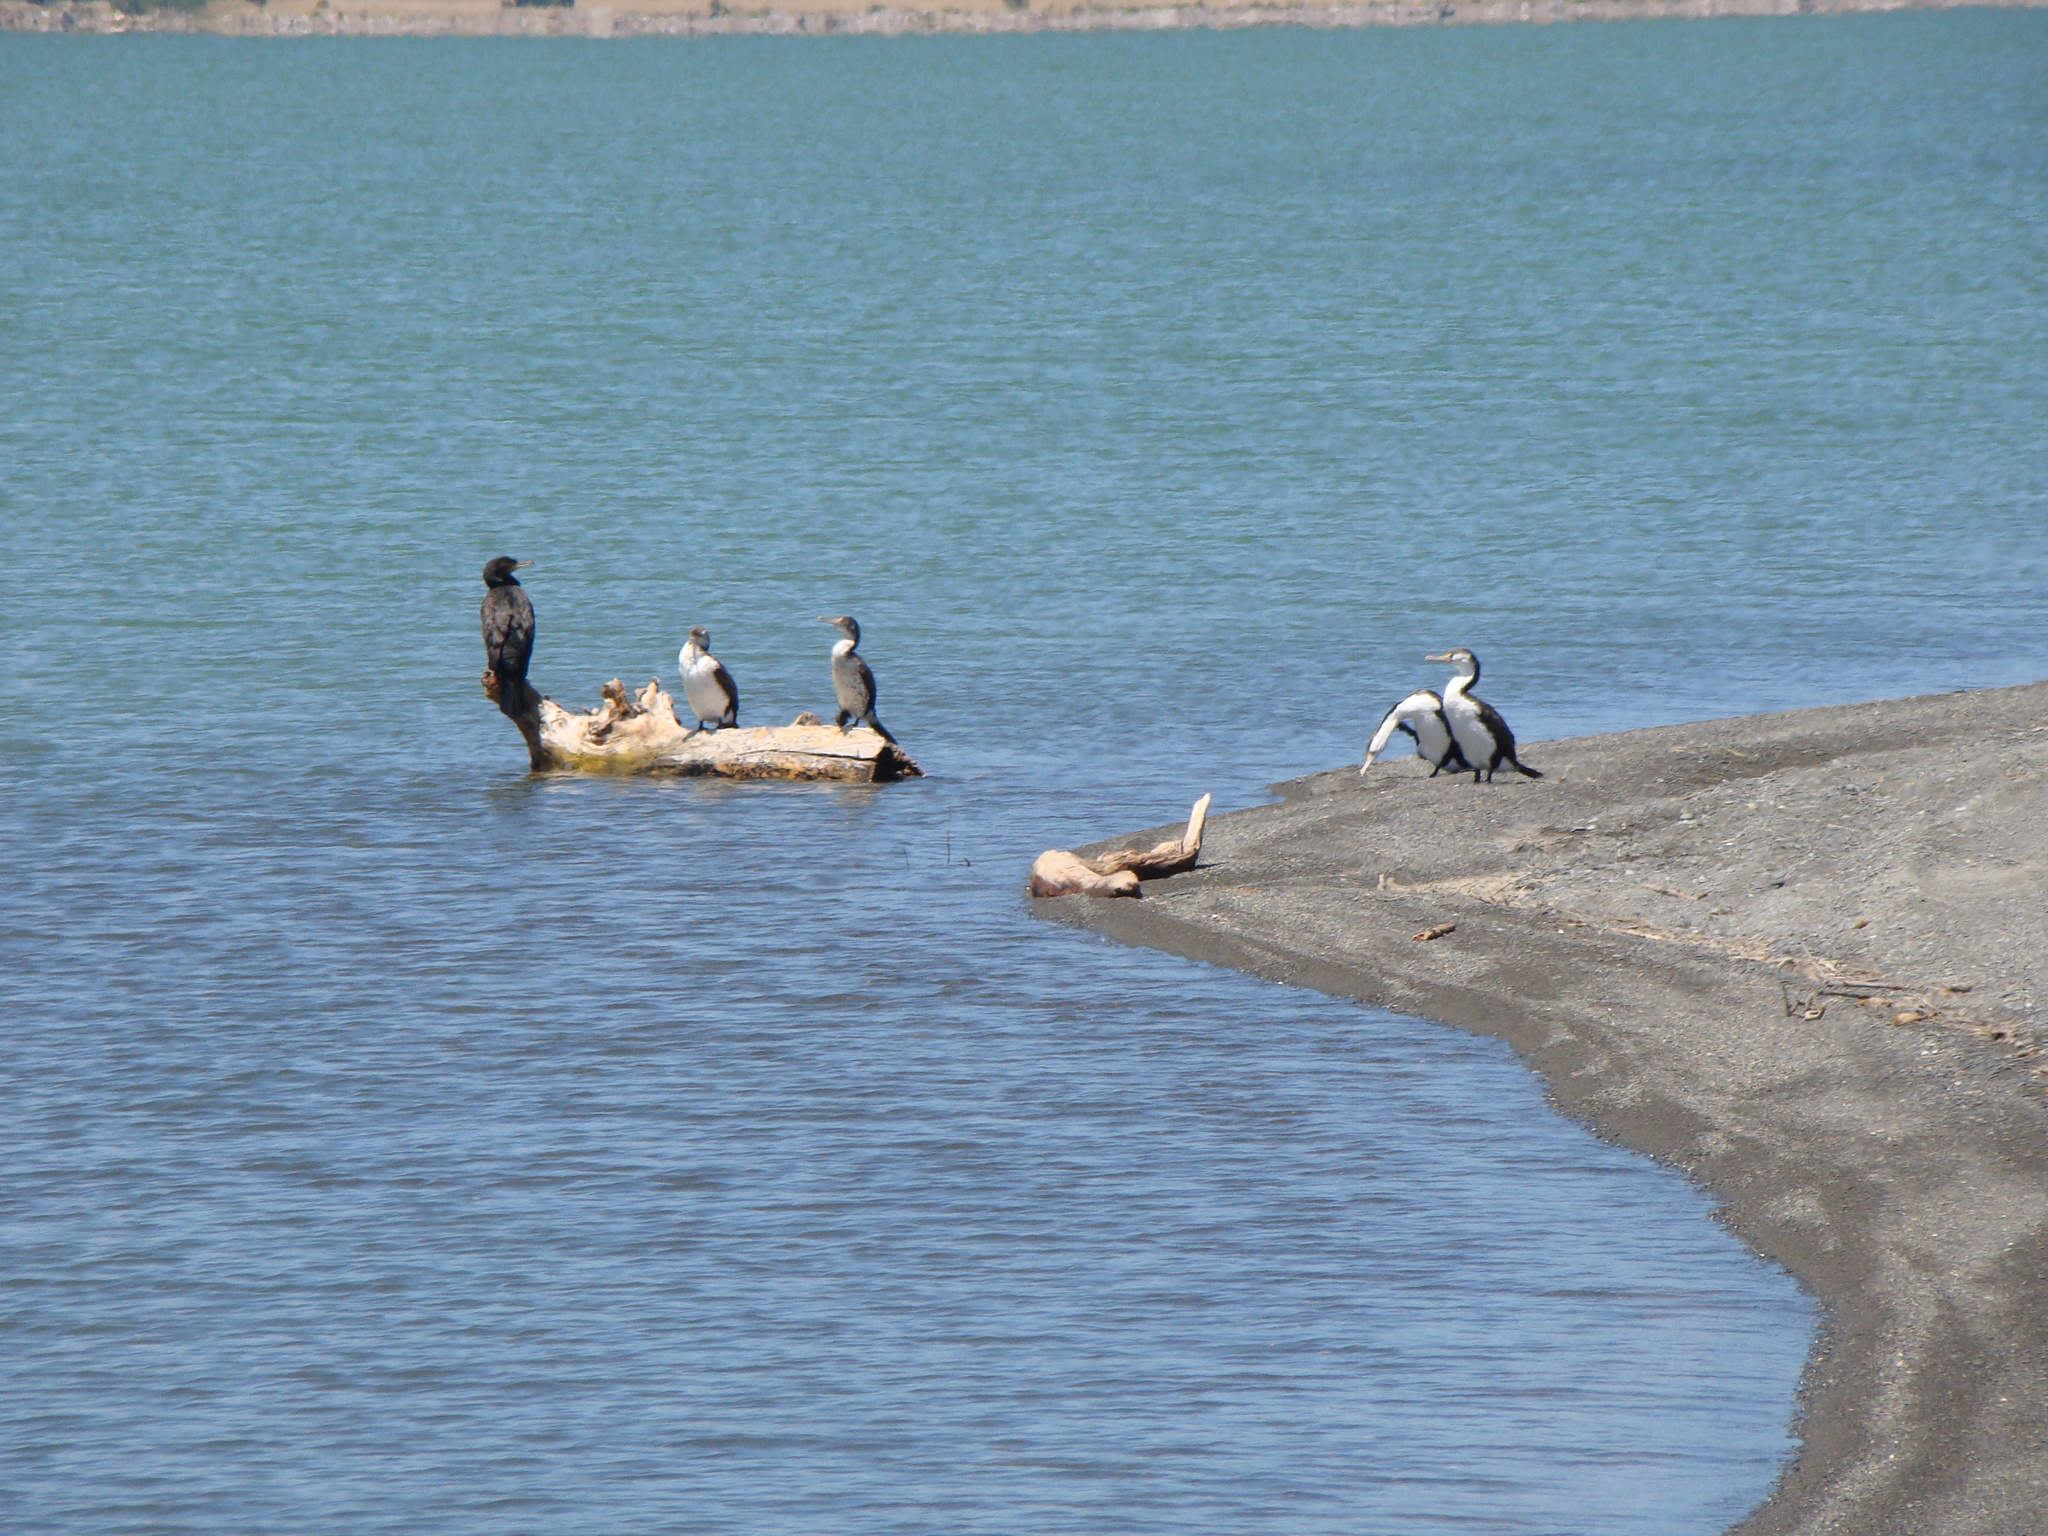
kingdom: Animalia
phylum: Chordata
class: Aves
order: Suliformes
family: Phalacrocoracidae
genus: Phalacrocorax
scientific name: Phalacrocorax carbo
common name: Great cormorant
